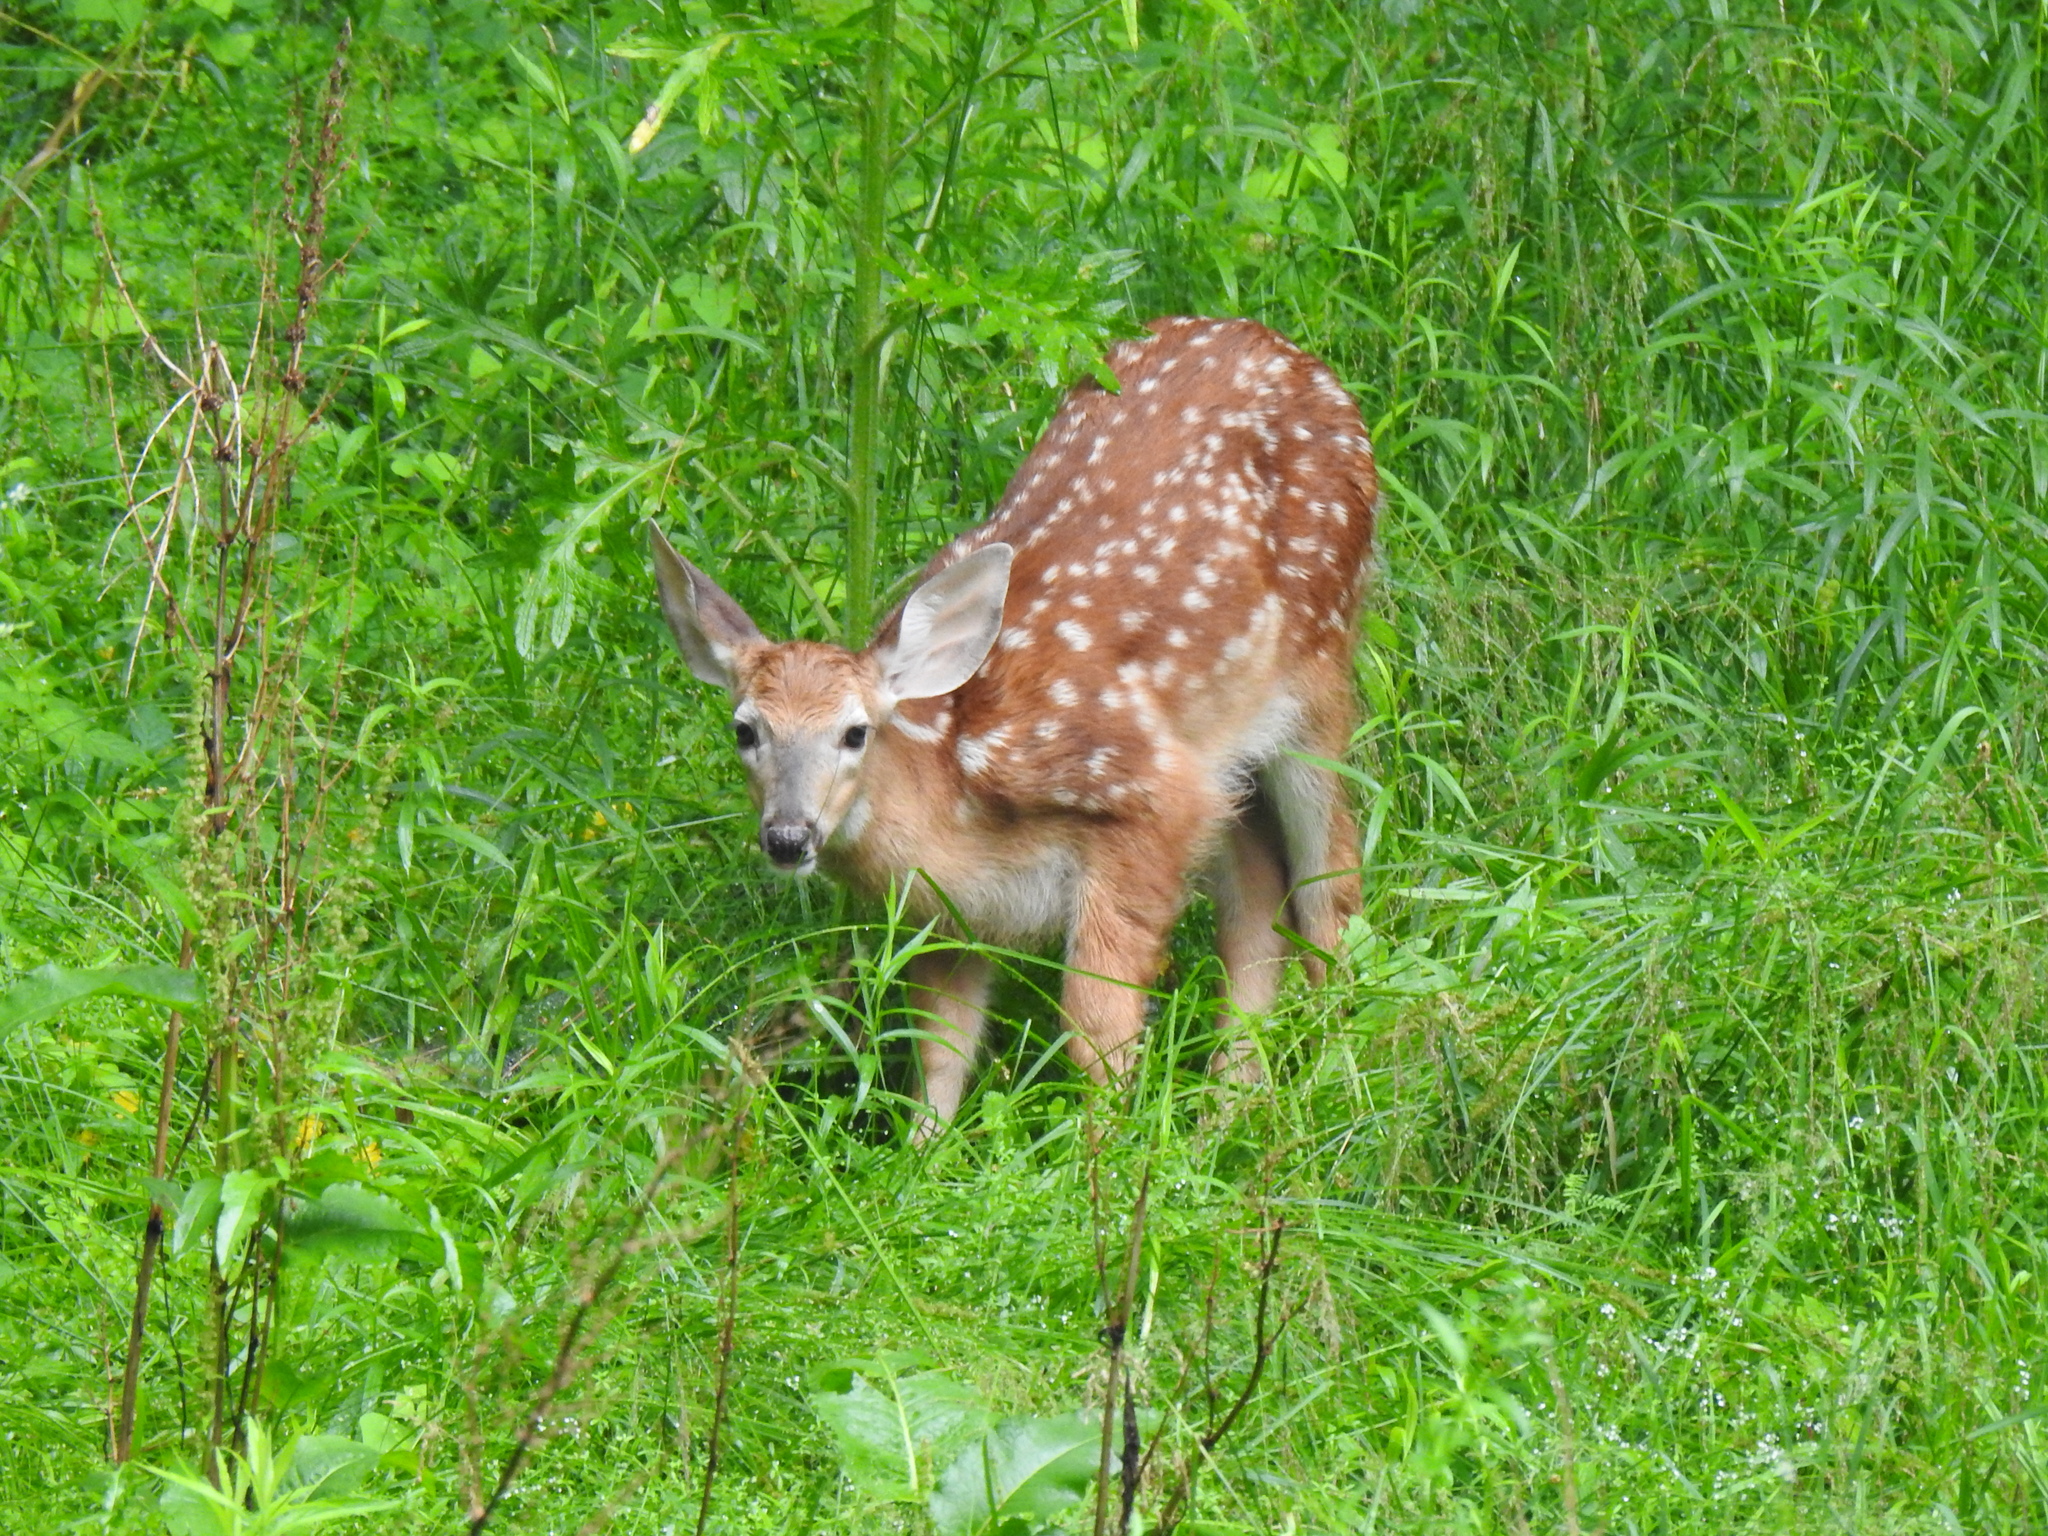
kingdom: Animalia
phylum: Chordata
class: Mammalia
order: Artiodactyla
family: Cervidae
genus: Odocoileus
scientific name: Odocoileus virginianus
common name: White-tailed deer
